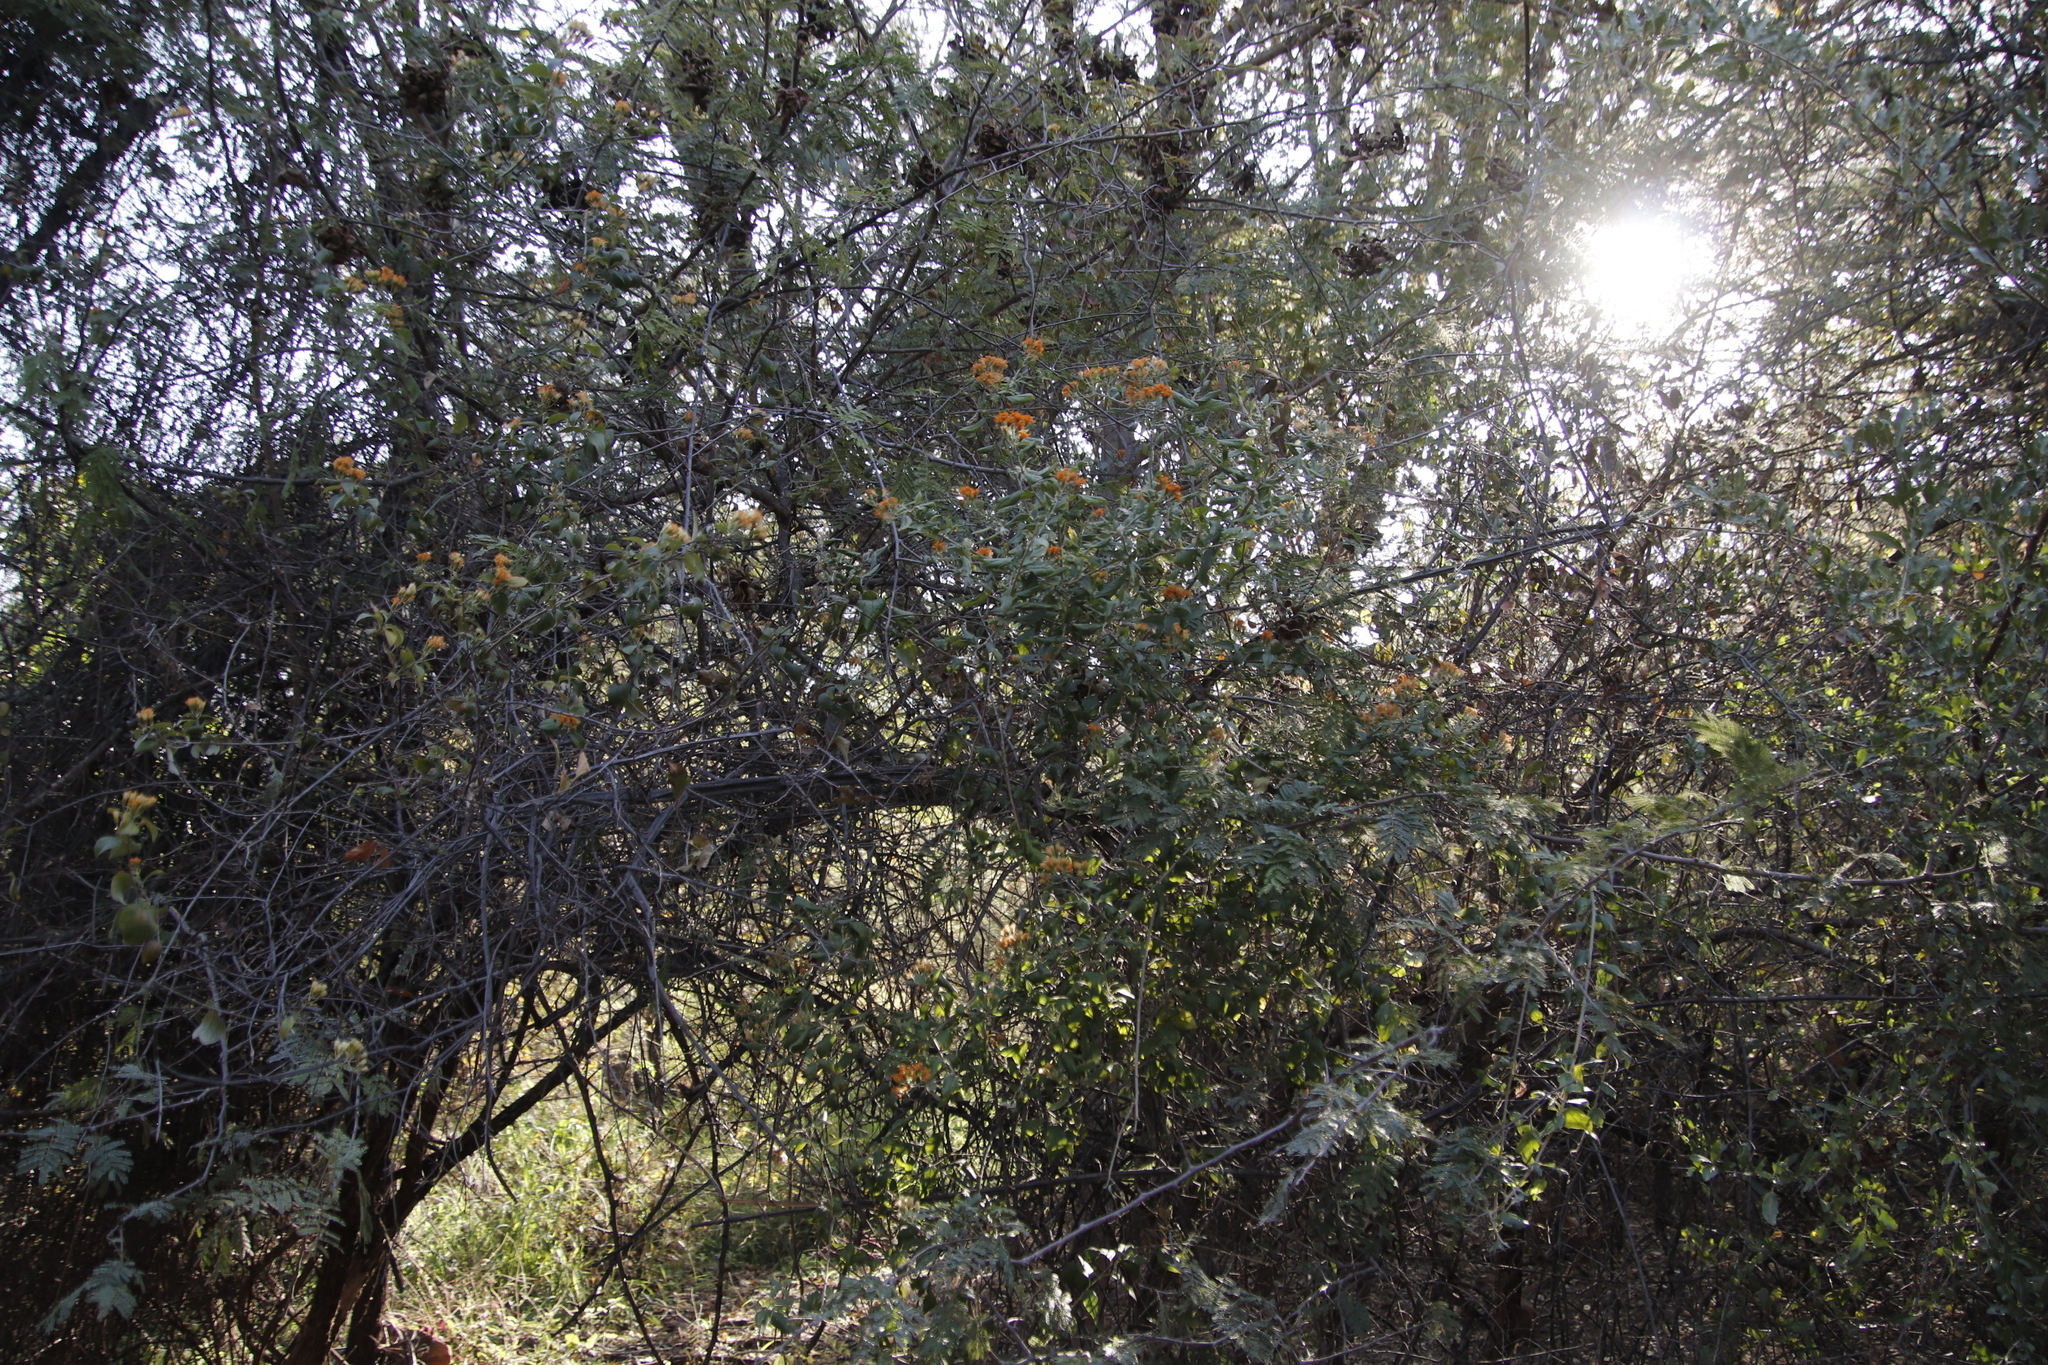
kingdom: Plantae
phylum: Tracheophyta
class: Magnoliopsida
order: Asterales
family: Asteraceae
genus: Distephanus
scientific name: Distephanus divaricatus
